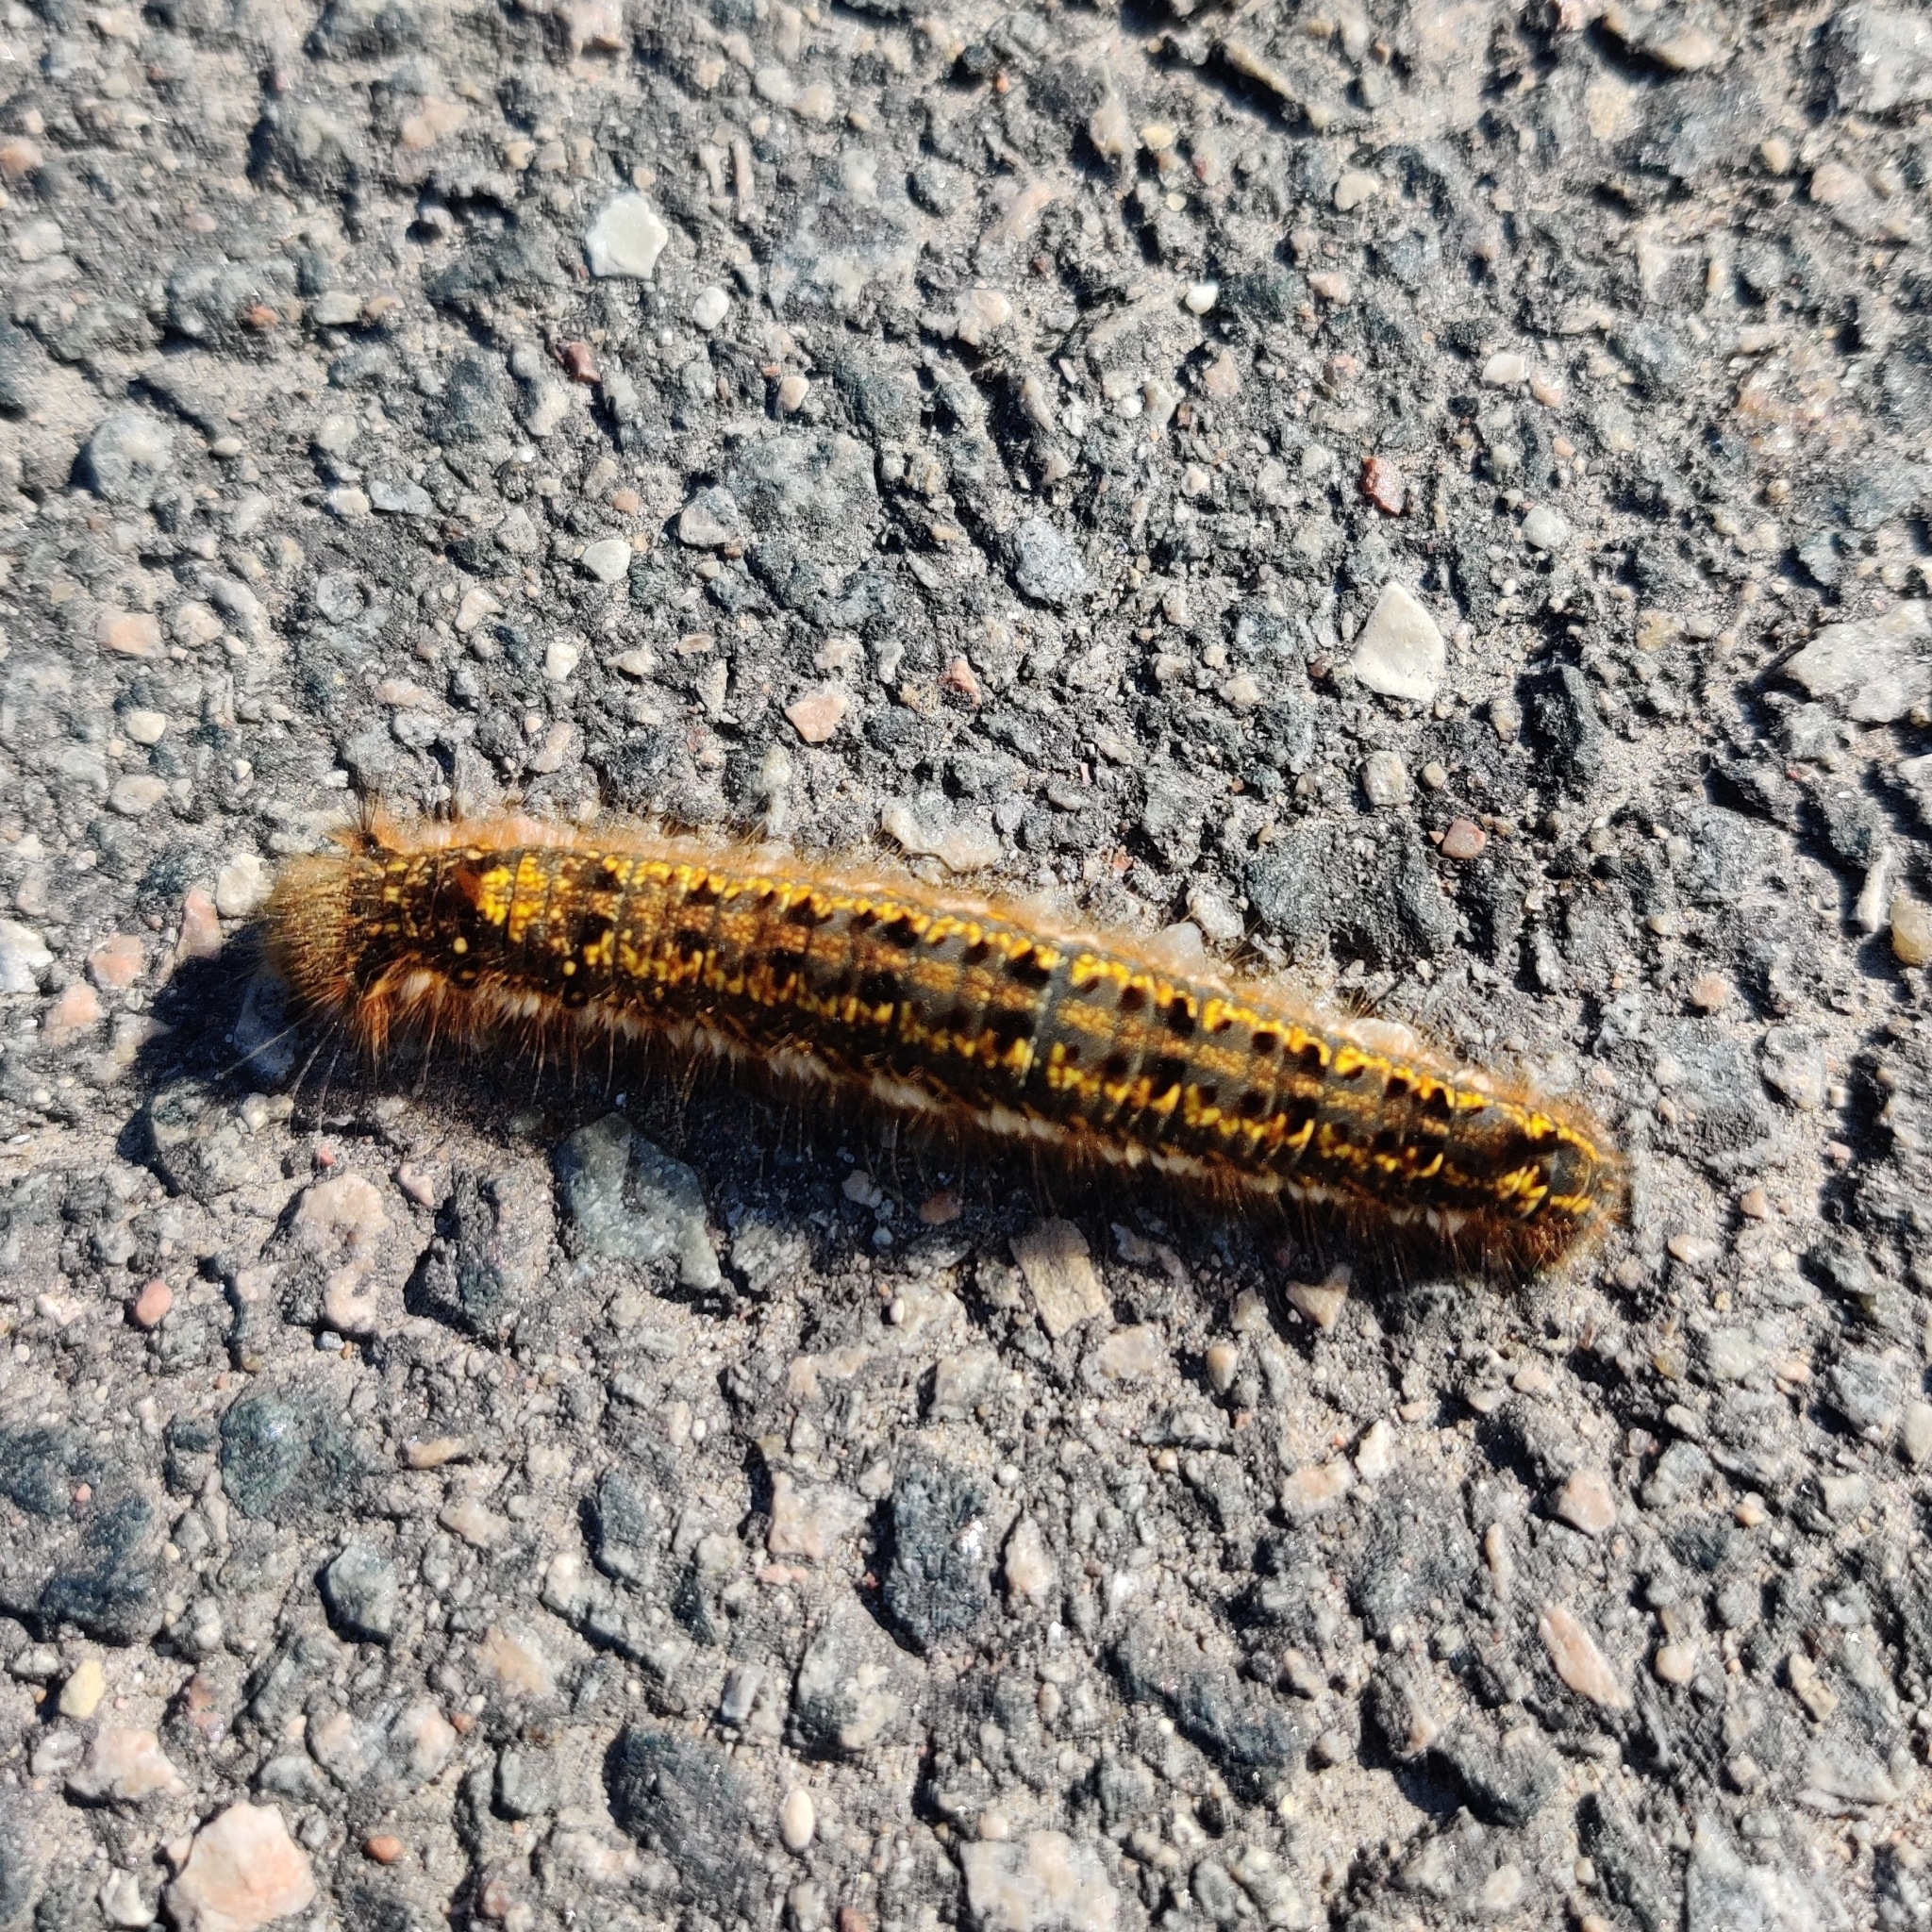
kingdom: Animalia
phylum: Arthropoda
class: Insecta
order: Lepidoptera
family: Lasiocampidae
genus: Euthrix
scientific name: Euthrix potatoria
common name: Drinker
